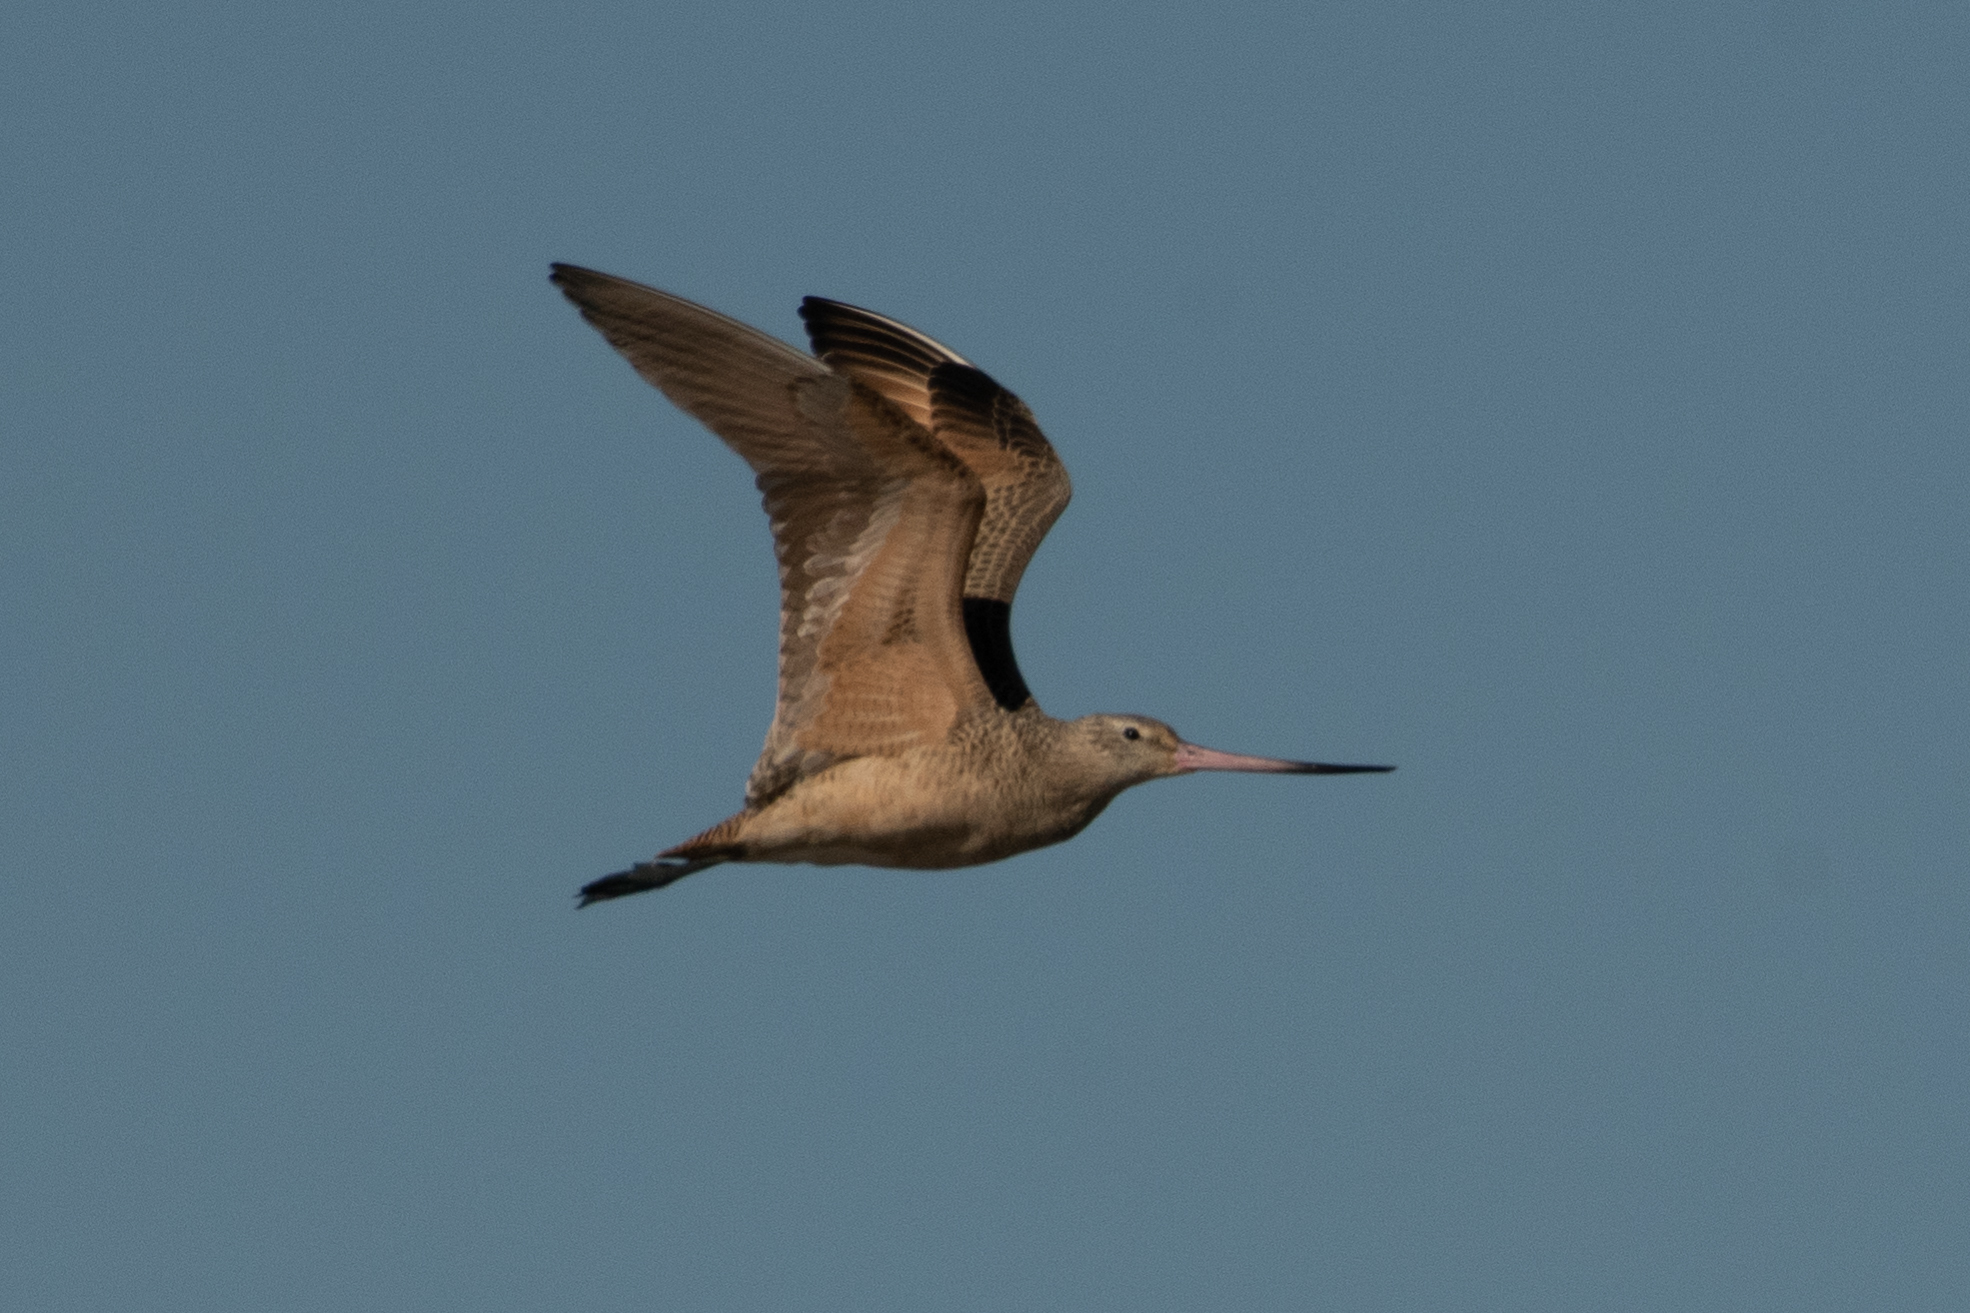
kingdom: Animalia
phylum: Chordata
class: Aves
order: Charadriiformes
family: Scolopacidae
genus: Limosa
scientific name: Limosa fedoa
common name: Marbled godwit
